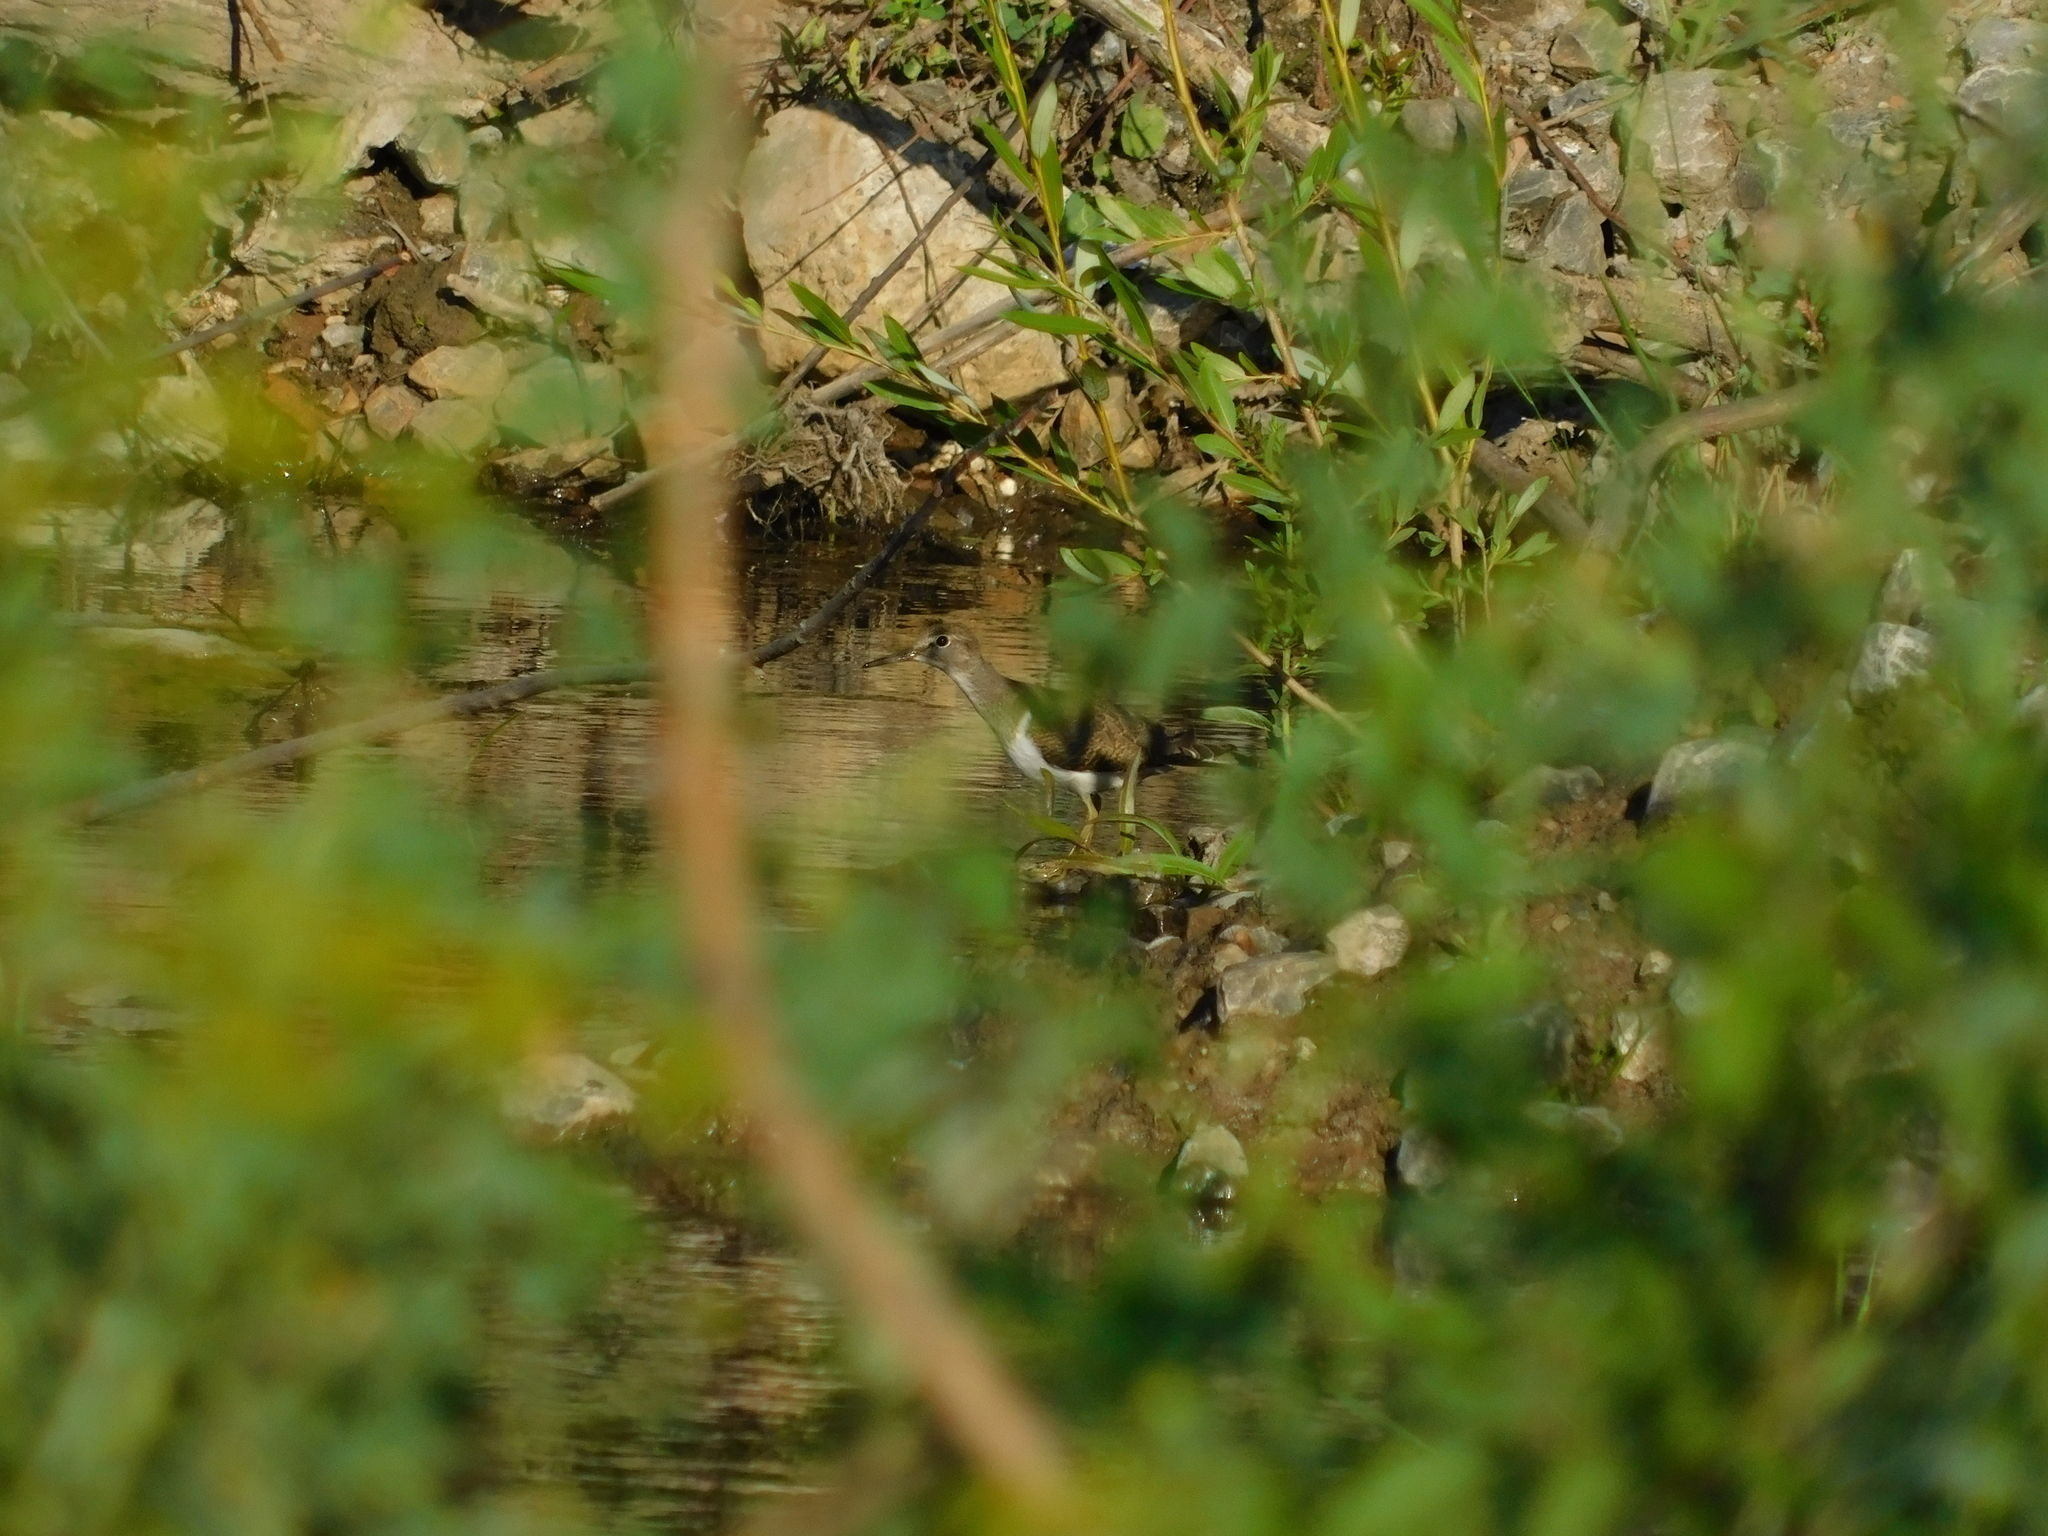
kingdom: Animalia
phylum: Chordata
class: Aves
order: Charadriiformes
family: Scolopacidae
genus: Actitis
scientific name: Actitis hypoleucos
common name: Common sandpiper
